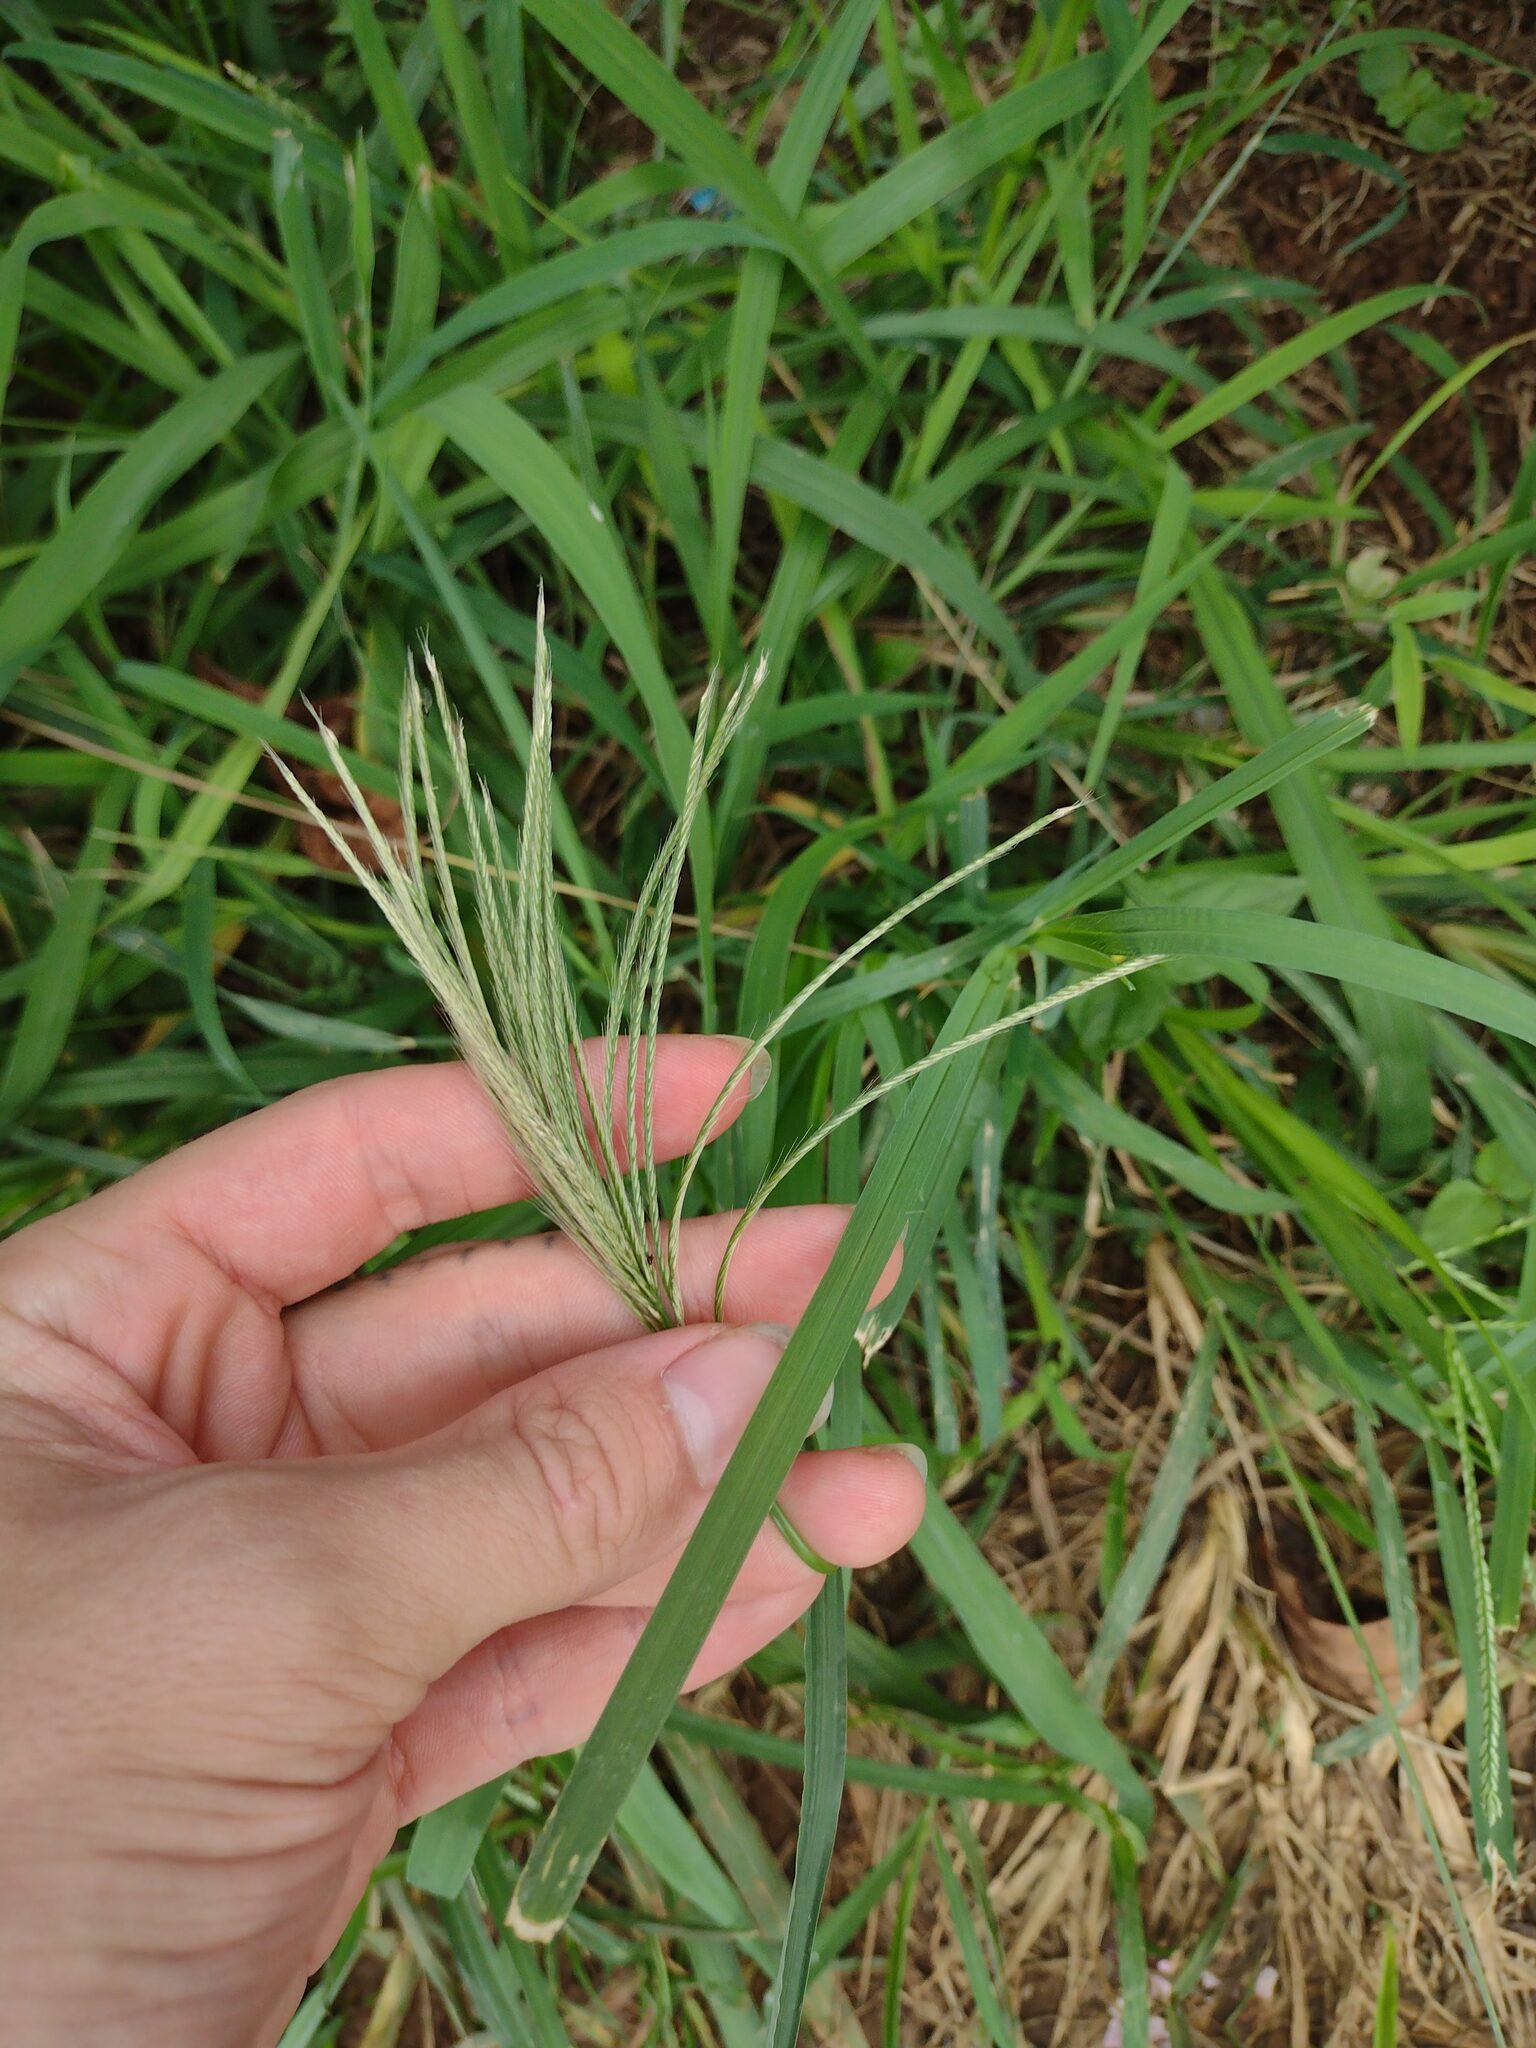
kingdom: Plantae
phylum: Tracheophyta
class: Liliopsida
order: Poales
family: Poaceae
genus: Chloris
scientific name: Chloris radiata
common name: Radiate fingergrass
